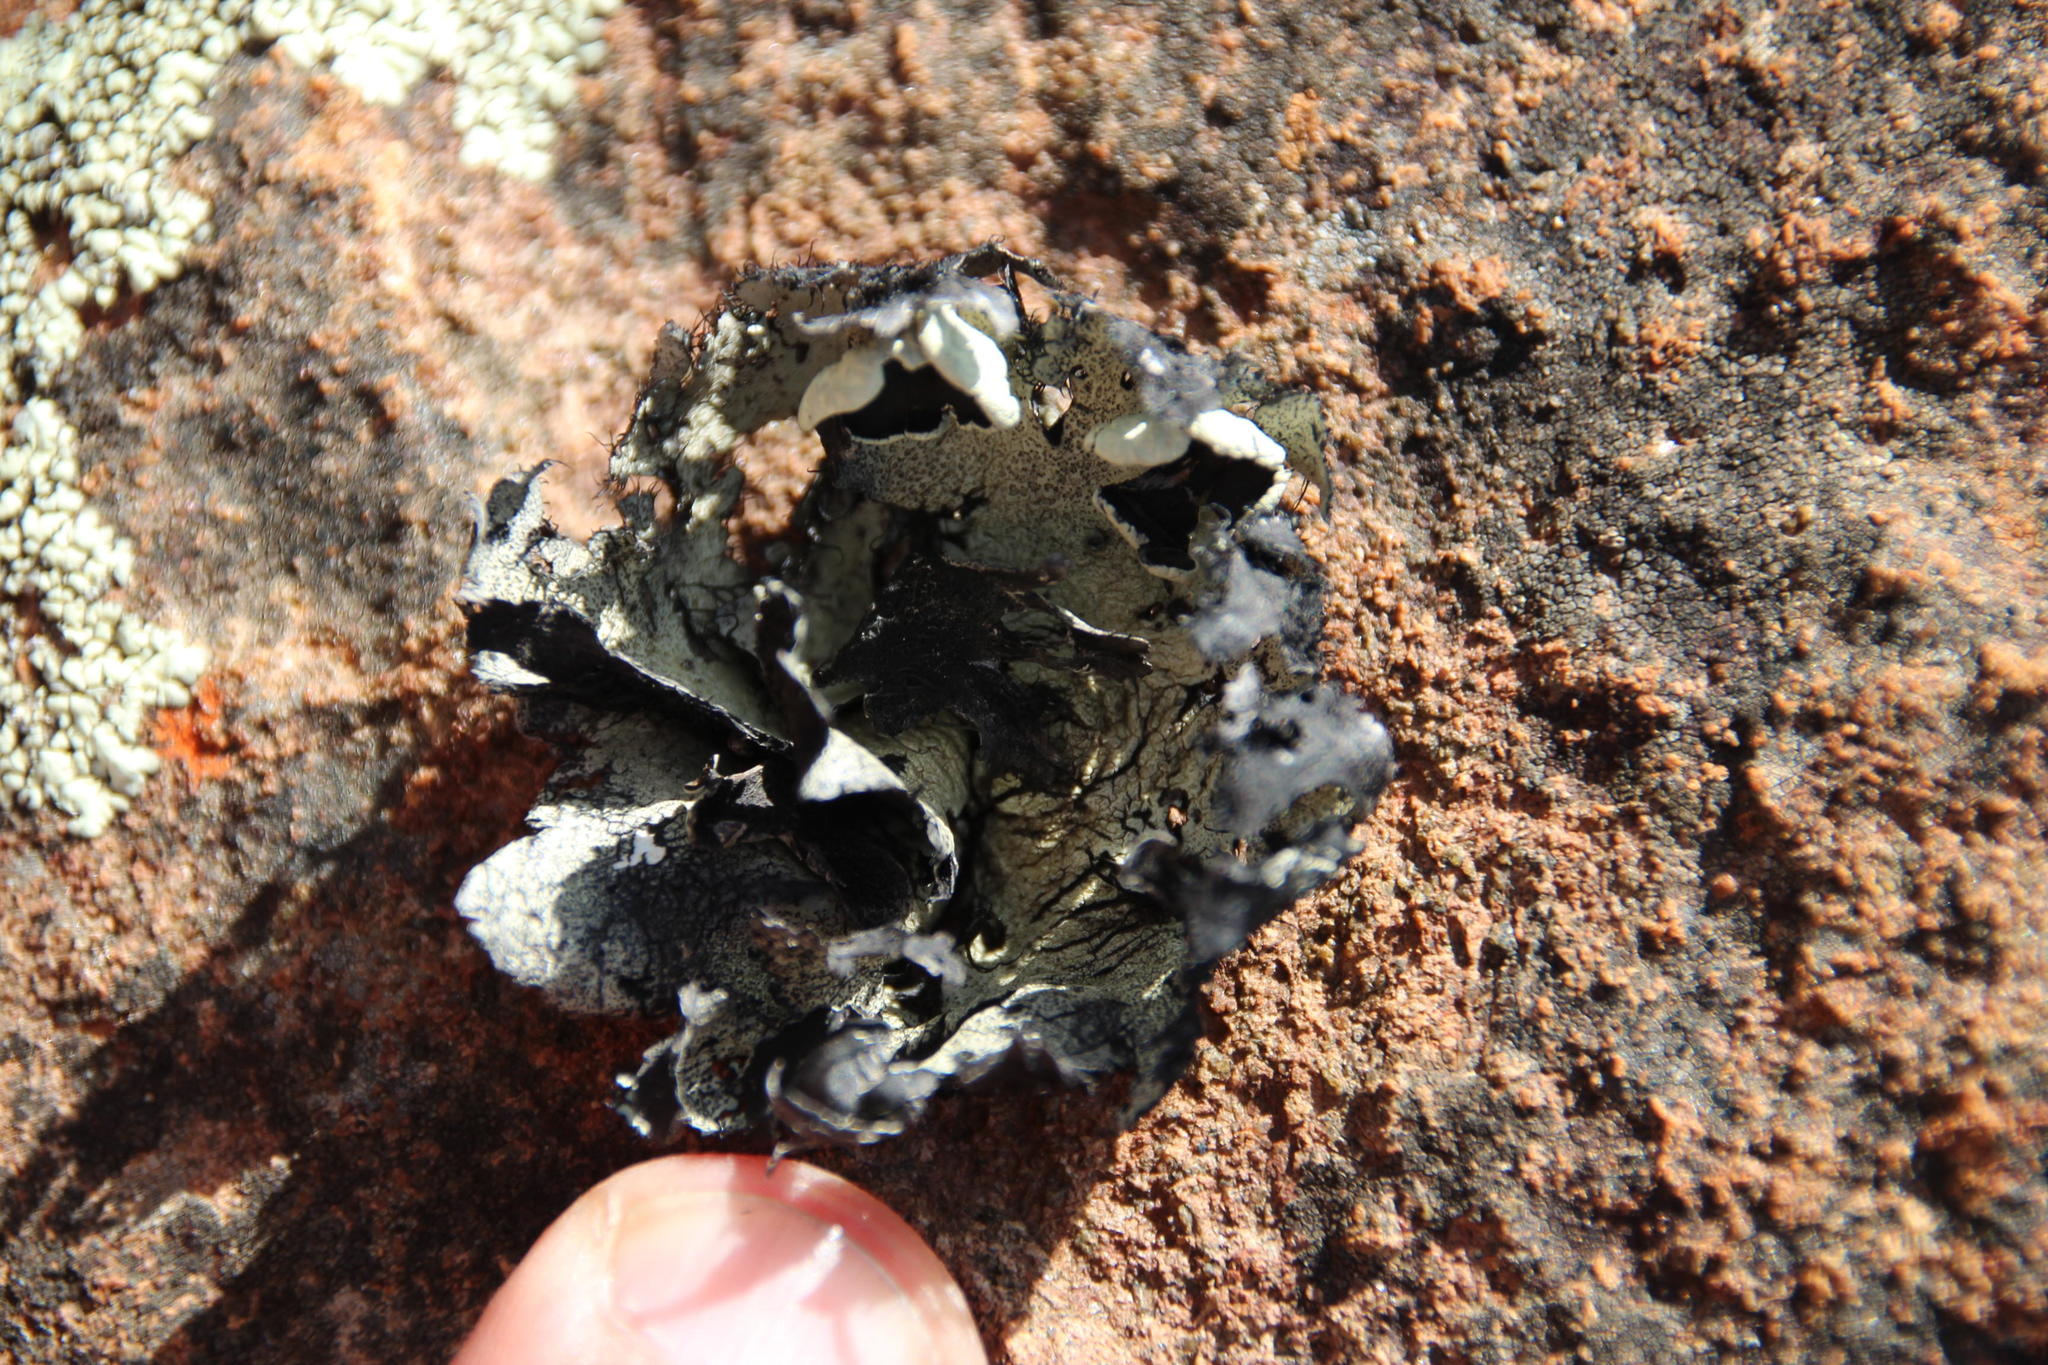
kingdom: Fungi
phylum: Ascomycota
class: Lecanoromycetes
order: Lecanorales
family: Parmeliaceae
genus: Xanthoparmelia
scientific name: Xanthoparmelia hottentotta
